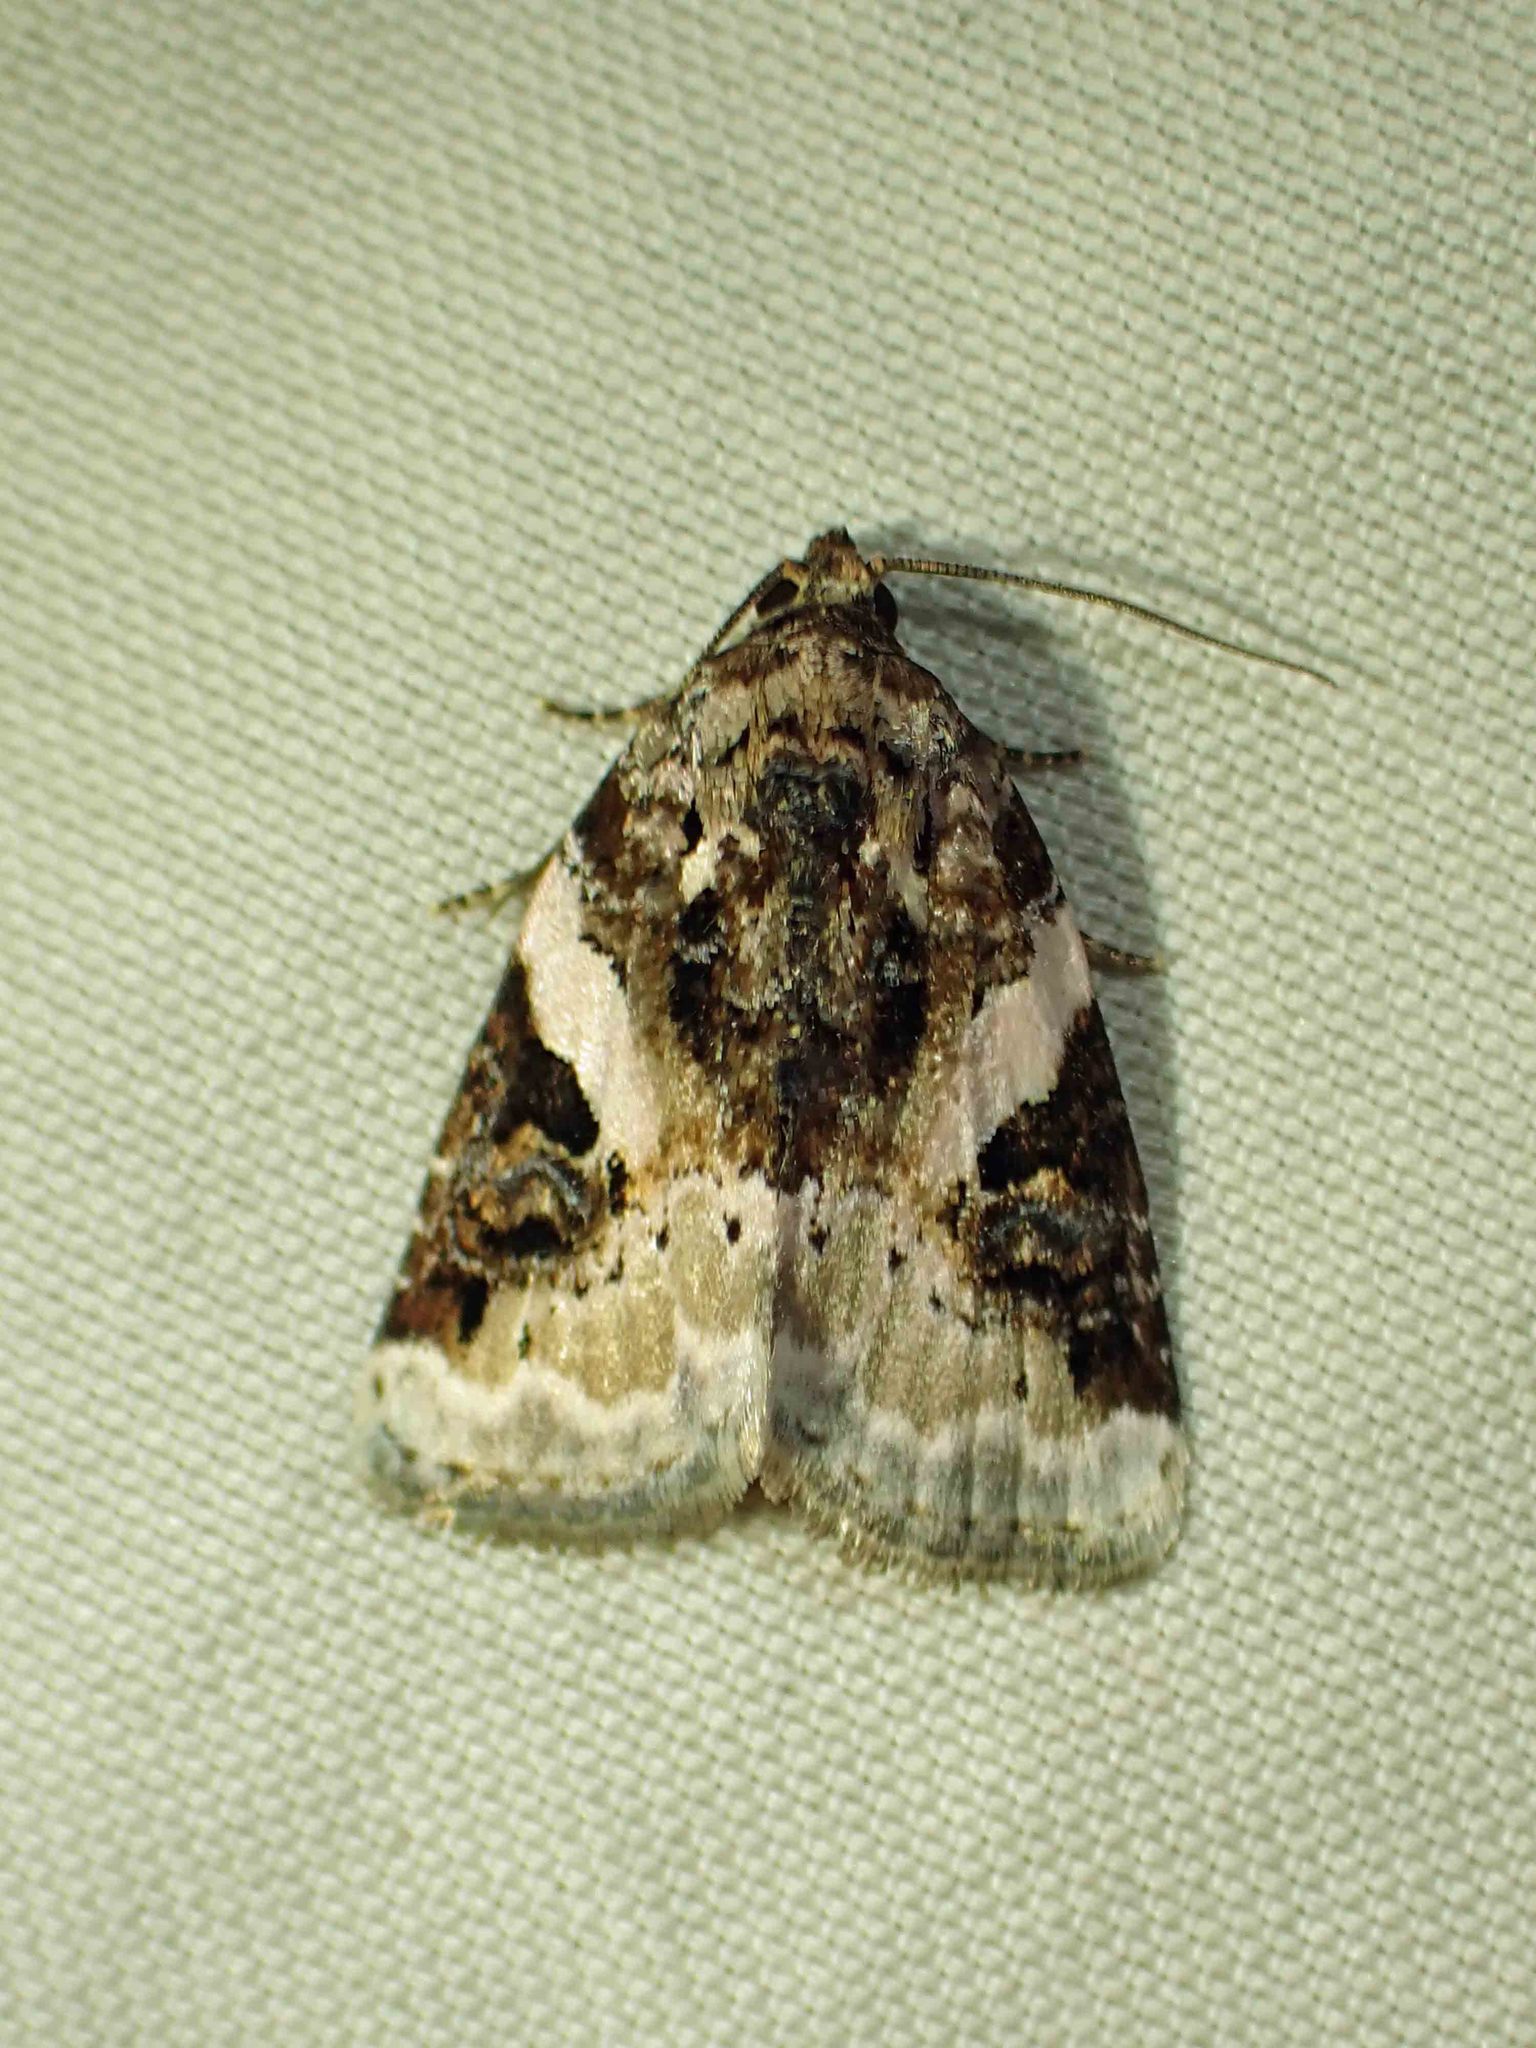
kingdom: Animalia
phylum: Arthropoda
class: Insecta
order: Lepidoptera
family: Noctuidae
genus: Pseudeustrotia
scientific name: Pseudeustrotia carneola
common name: Pink-barred lithacodia moth
